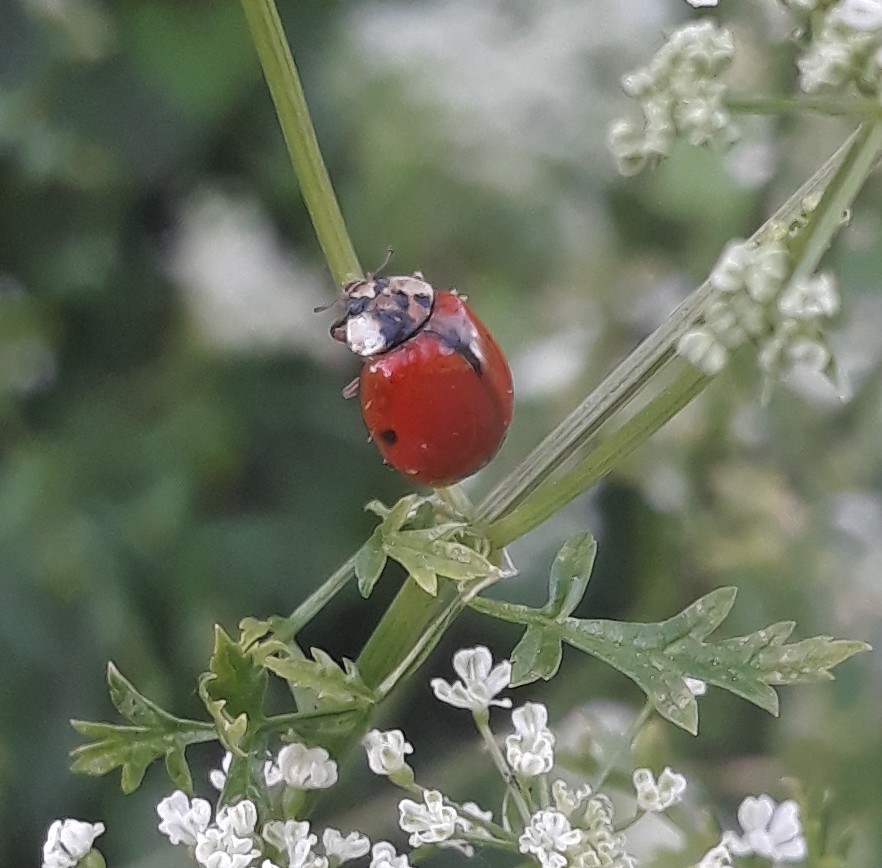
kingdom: Animalia
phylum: Arthropoda
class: Insecta
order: Coleoptera
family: Coccinellidae
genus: Harmonia
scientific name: Harmonia axyridis
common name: Harlequin ladybird
